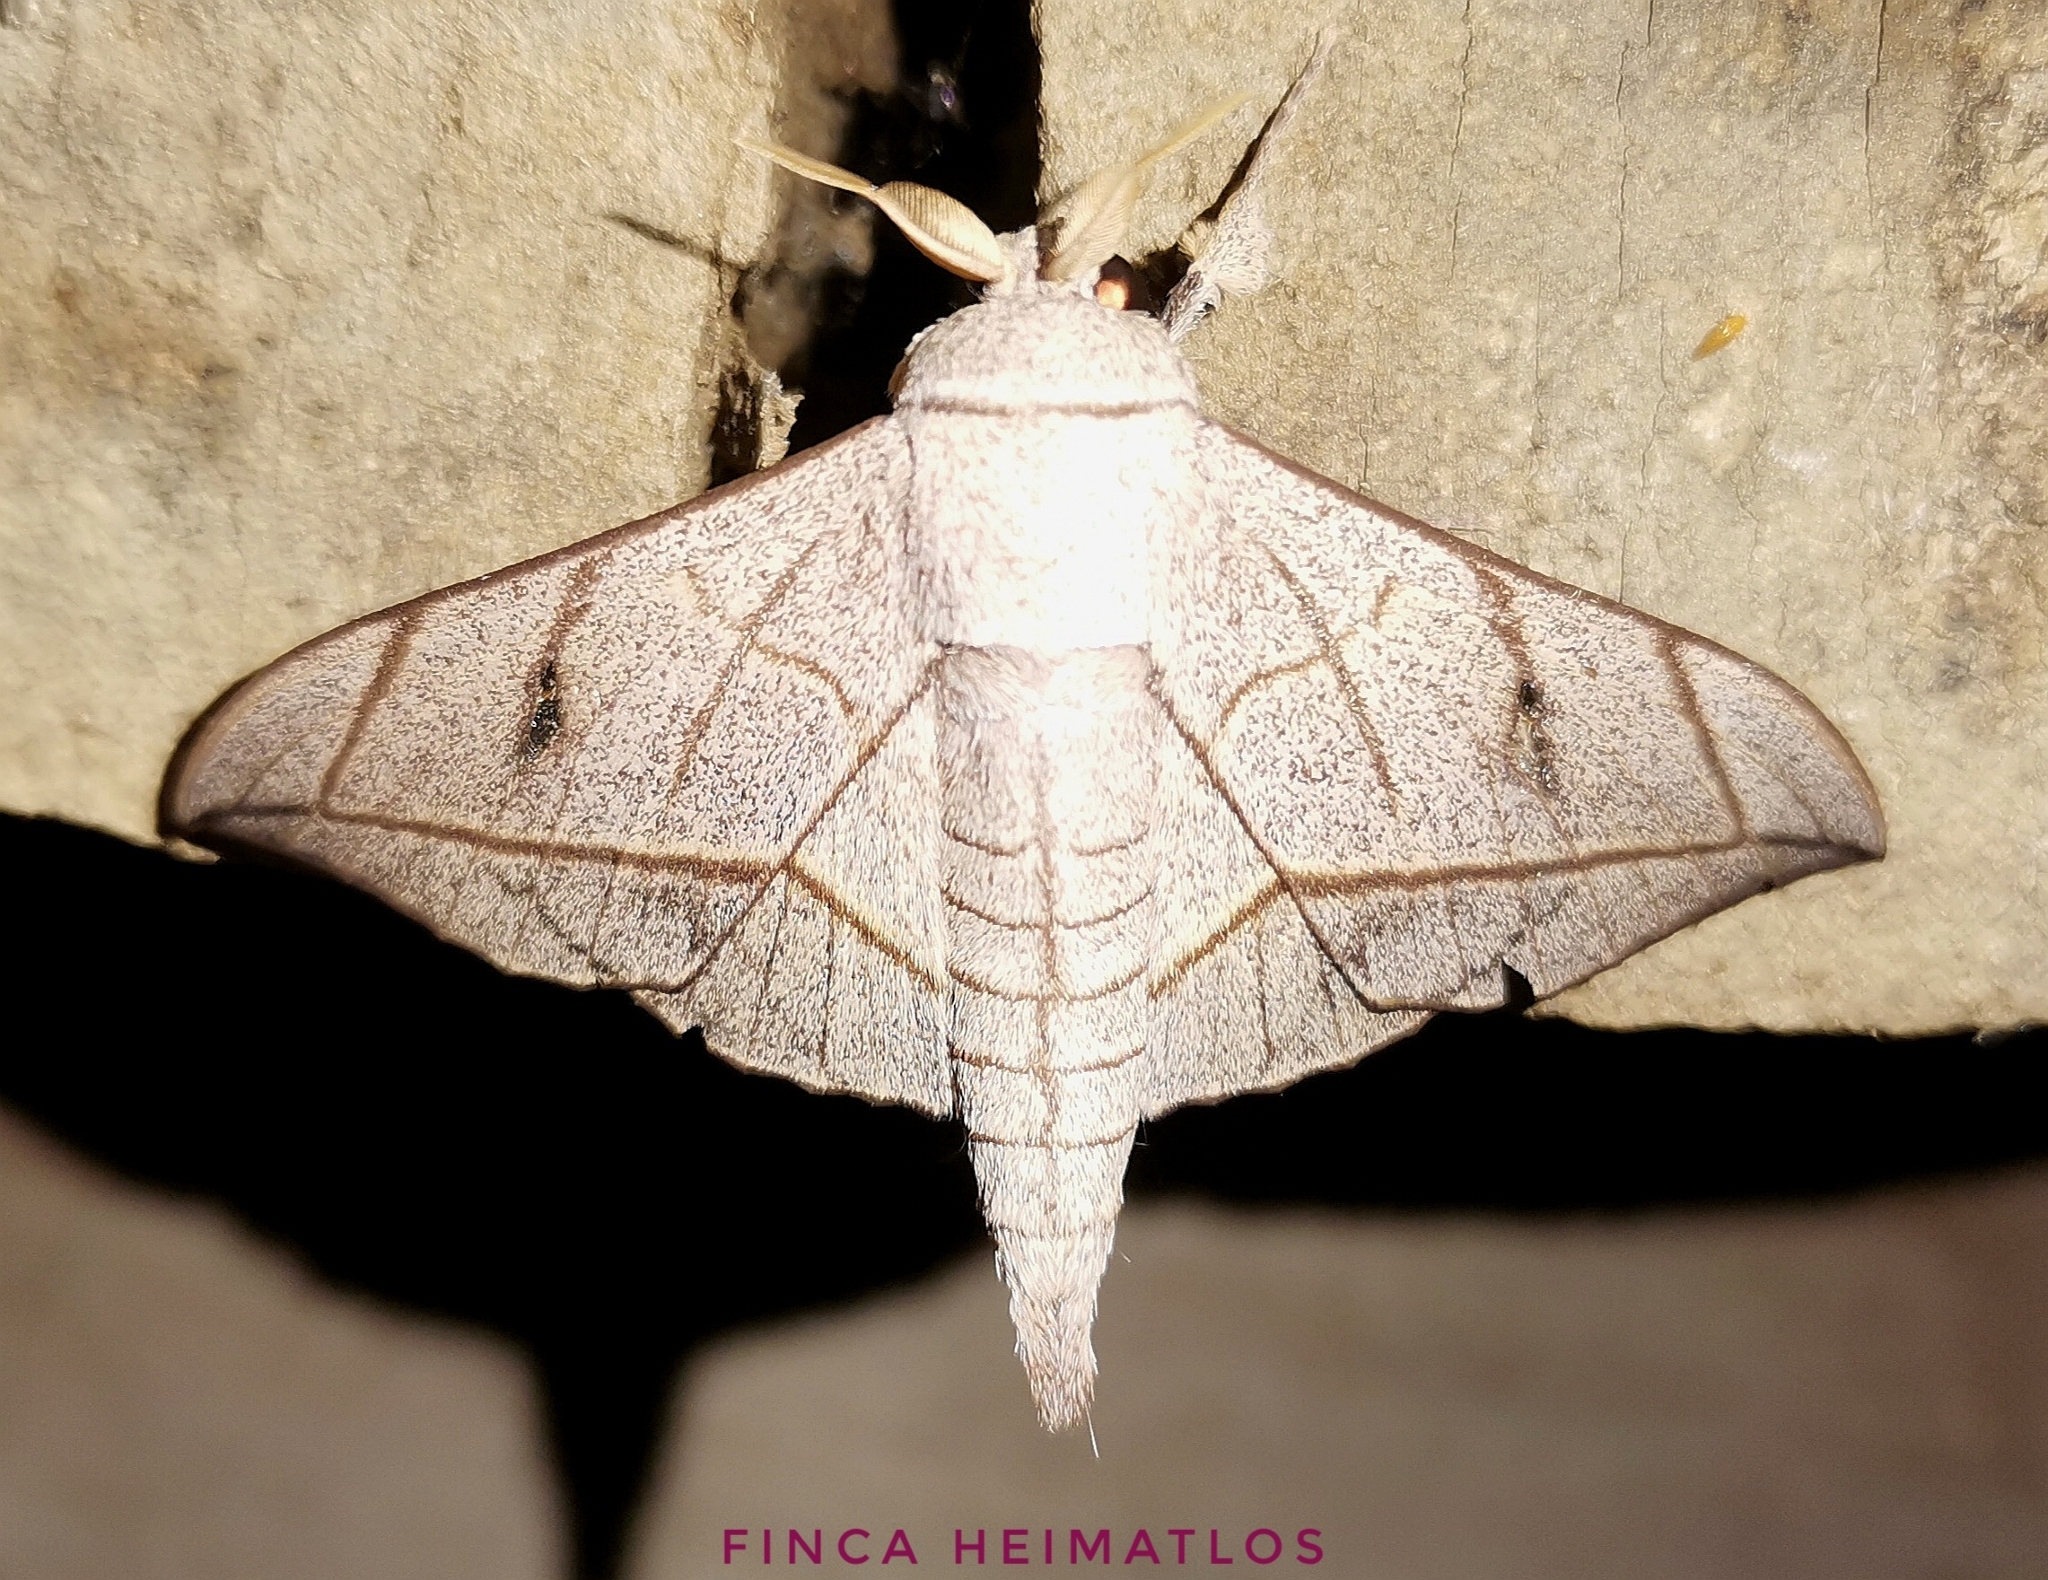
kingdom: Animalia
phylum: Arthropoda
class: Insecta
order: Lepidoptera
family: Mimallonidae
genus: Bedosia
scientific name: Bedosia fraterna
